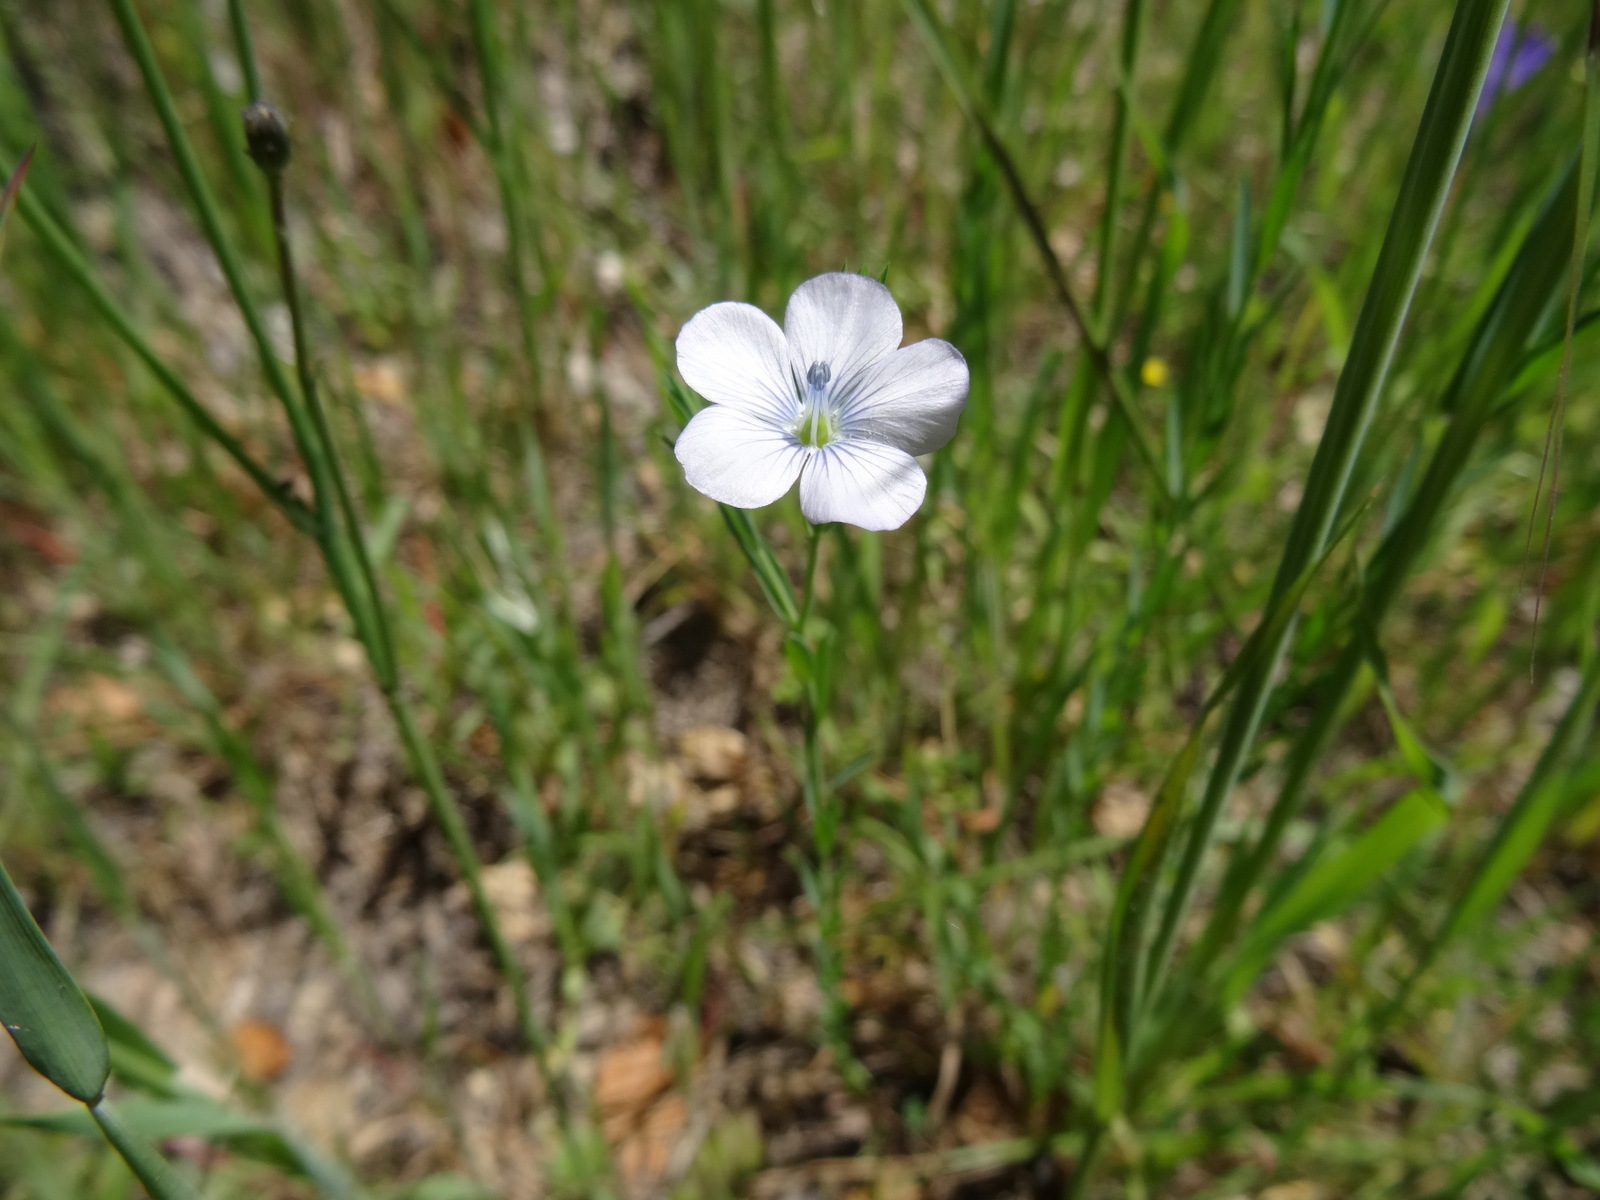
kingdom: Plantae
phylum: Tracheophyta
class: Magnoliopsida
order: Malpighiales
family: Linaceae
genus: Linum
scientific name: Linum bienne
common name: Pale flax
